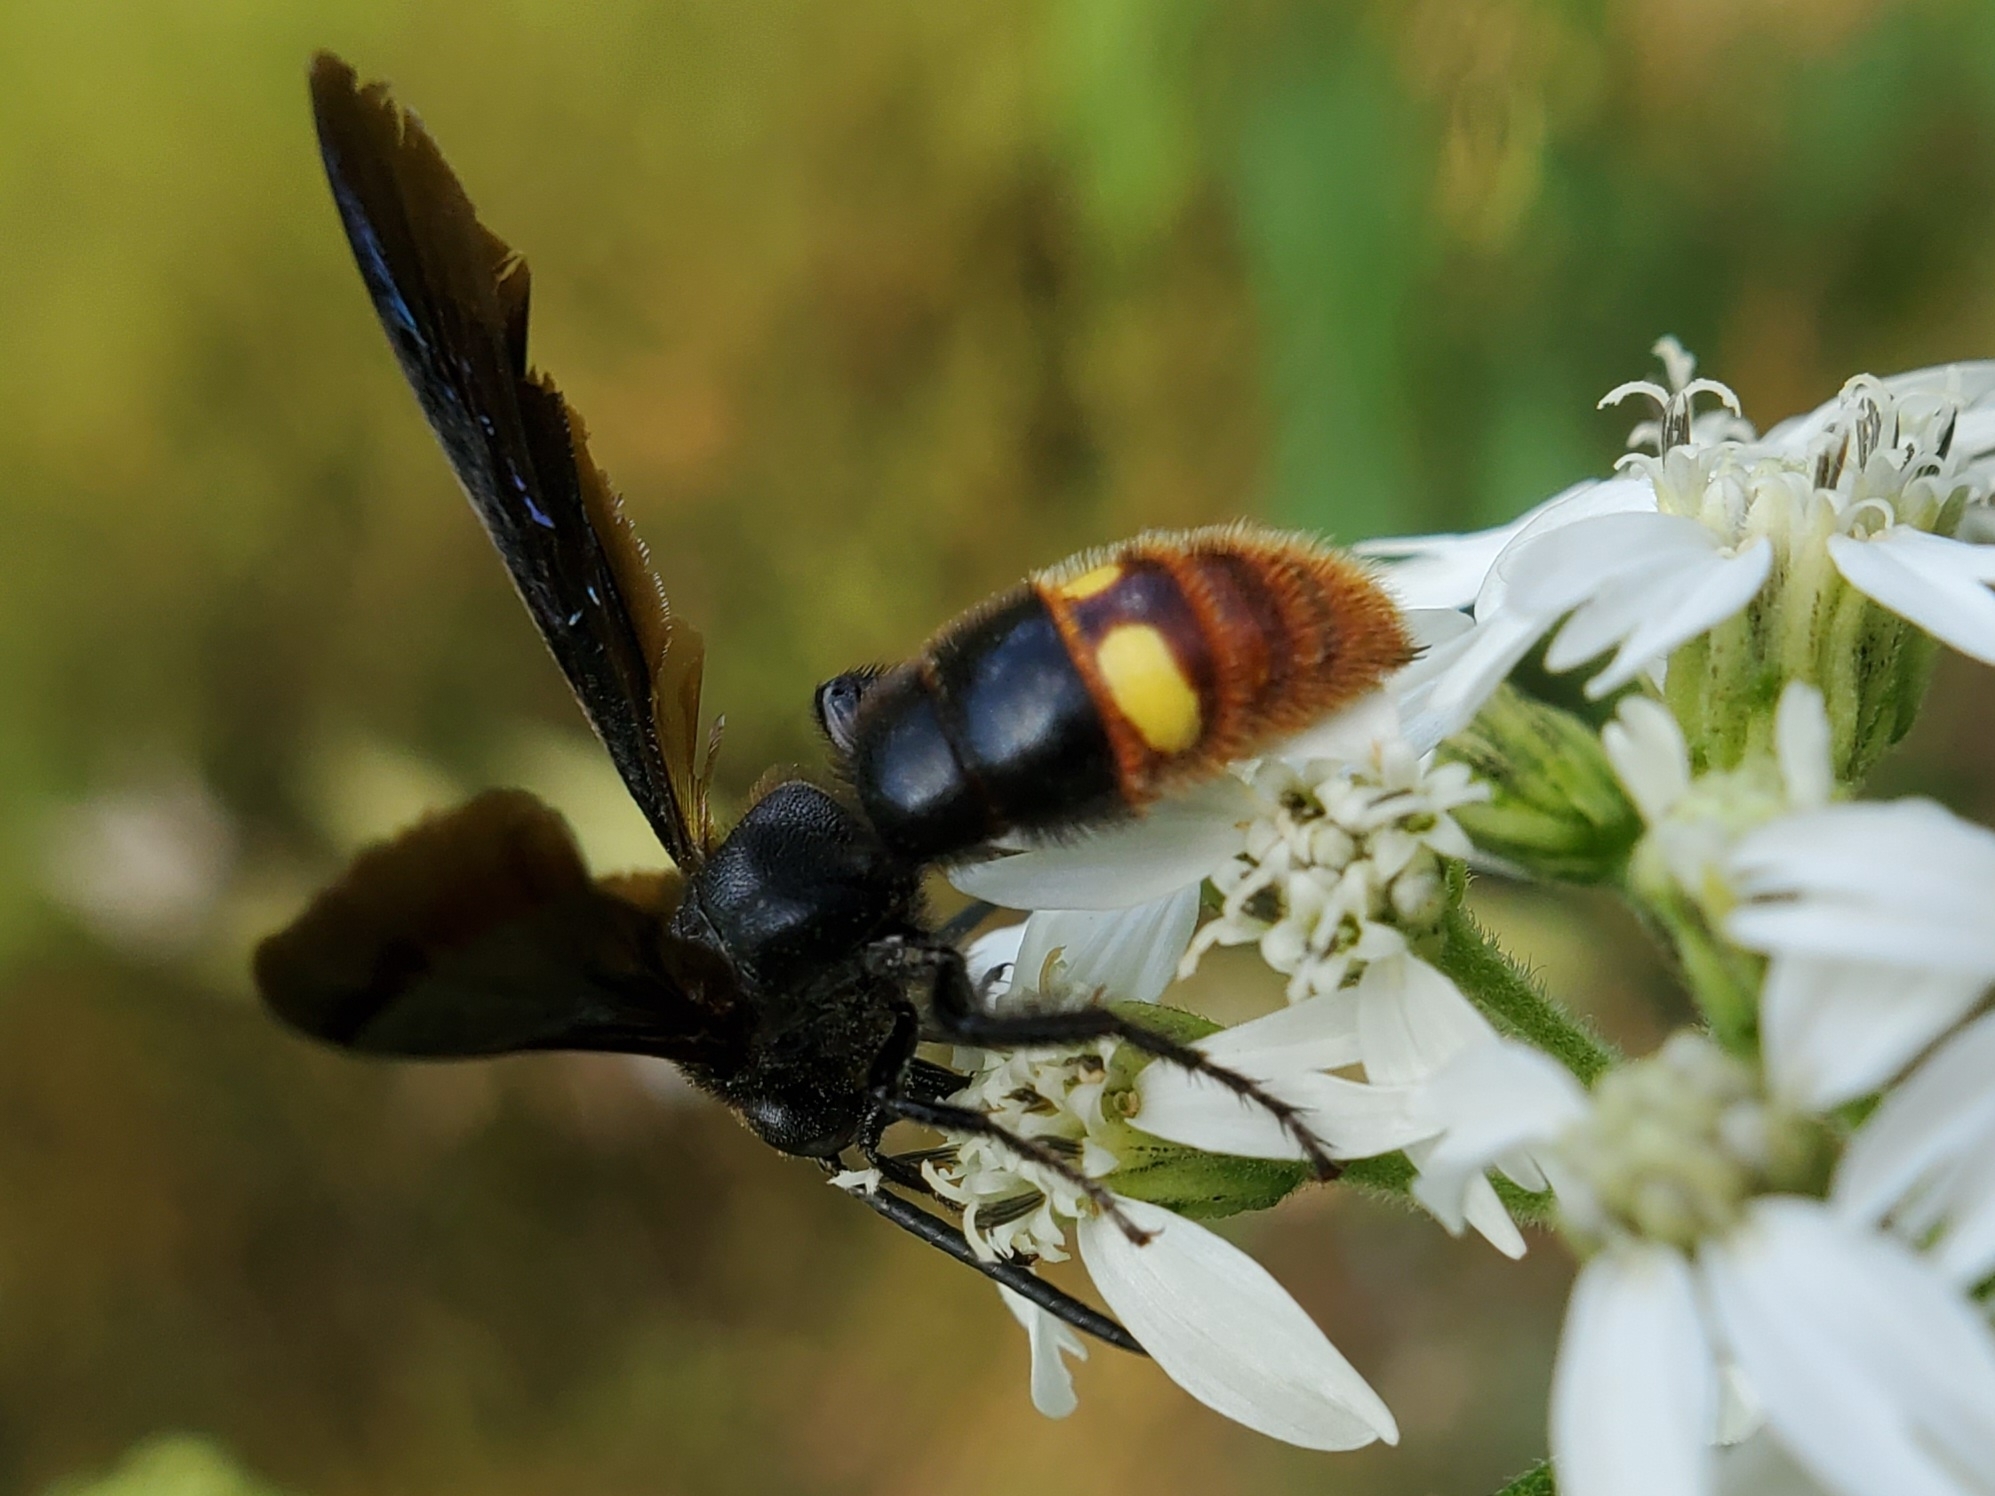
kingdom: Animalia
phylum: Arthropoda
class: Insecta
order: Hymenoptera
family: Scoliidae
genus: Scolia
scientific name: Scolia dubia
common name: Blue-winged scoliid wasp
